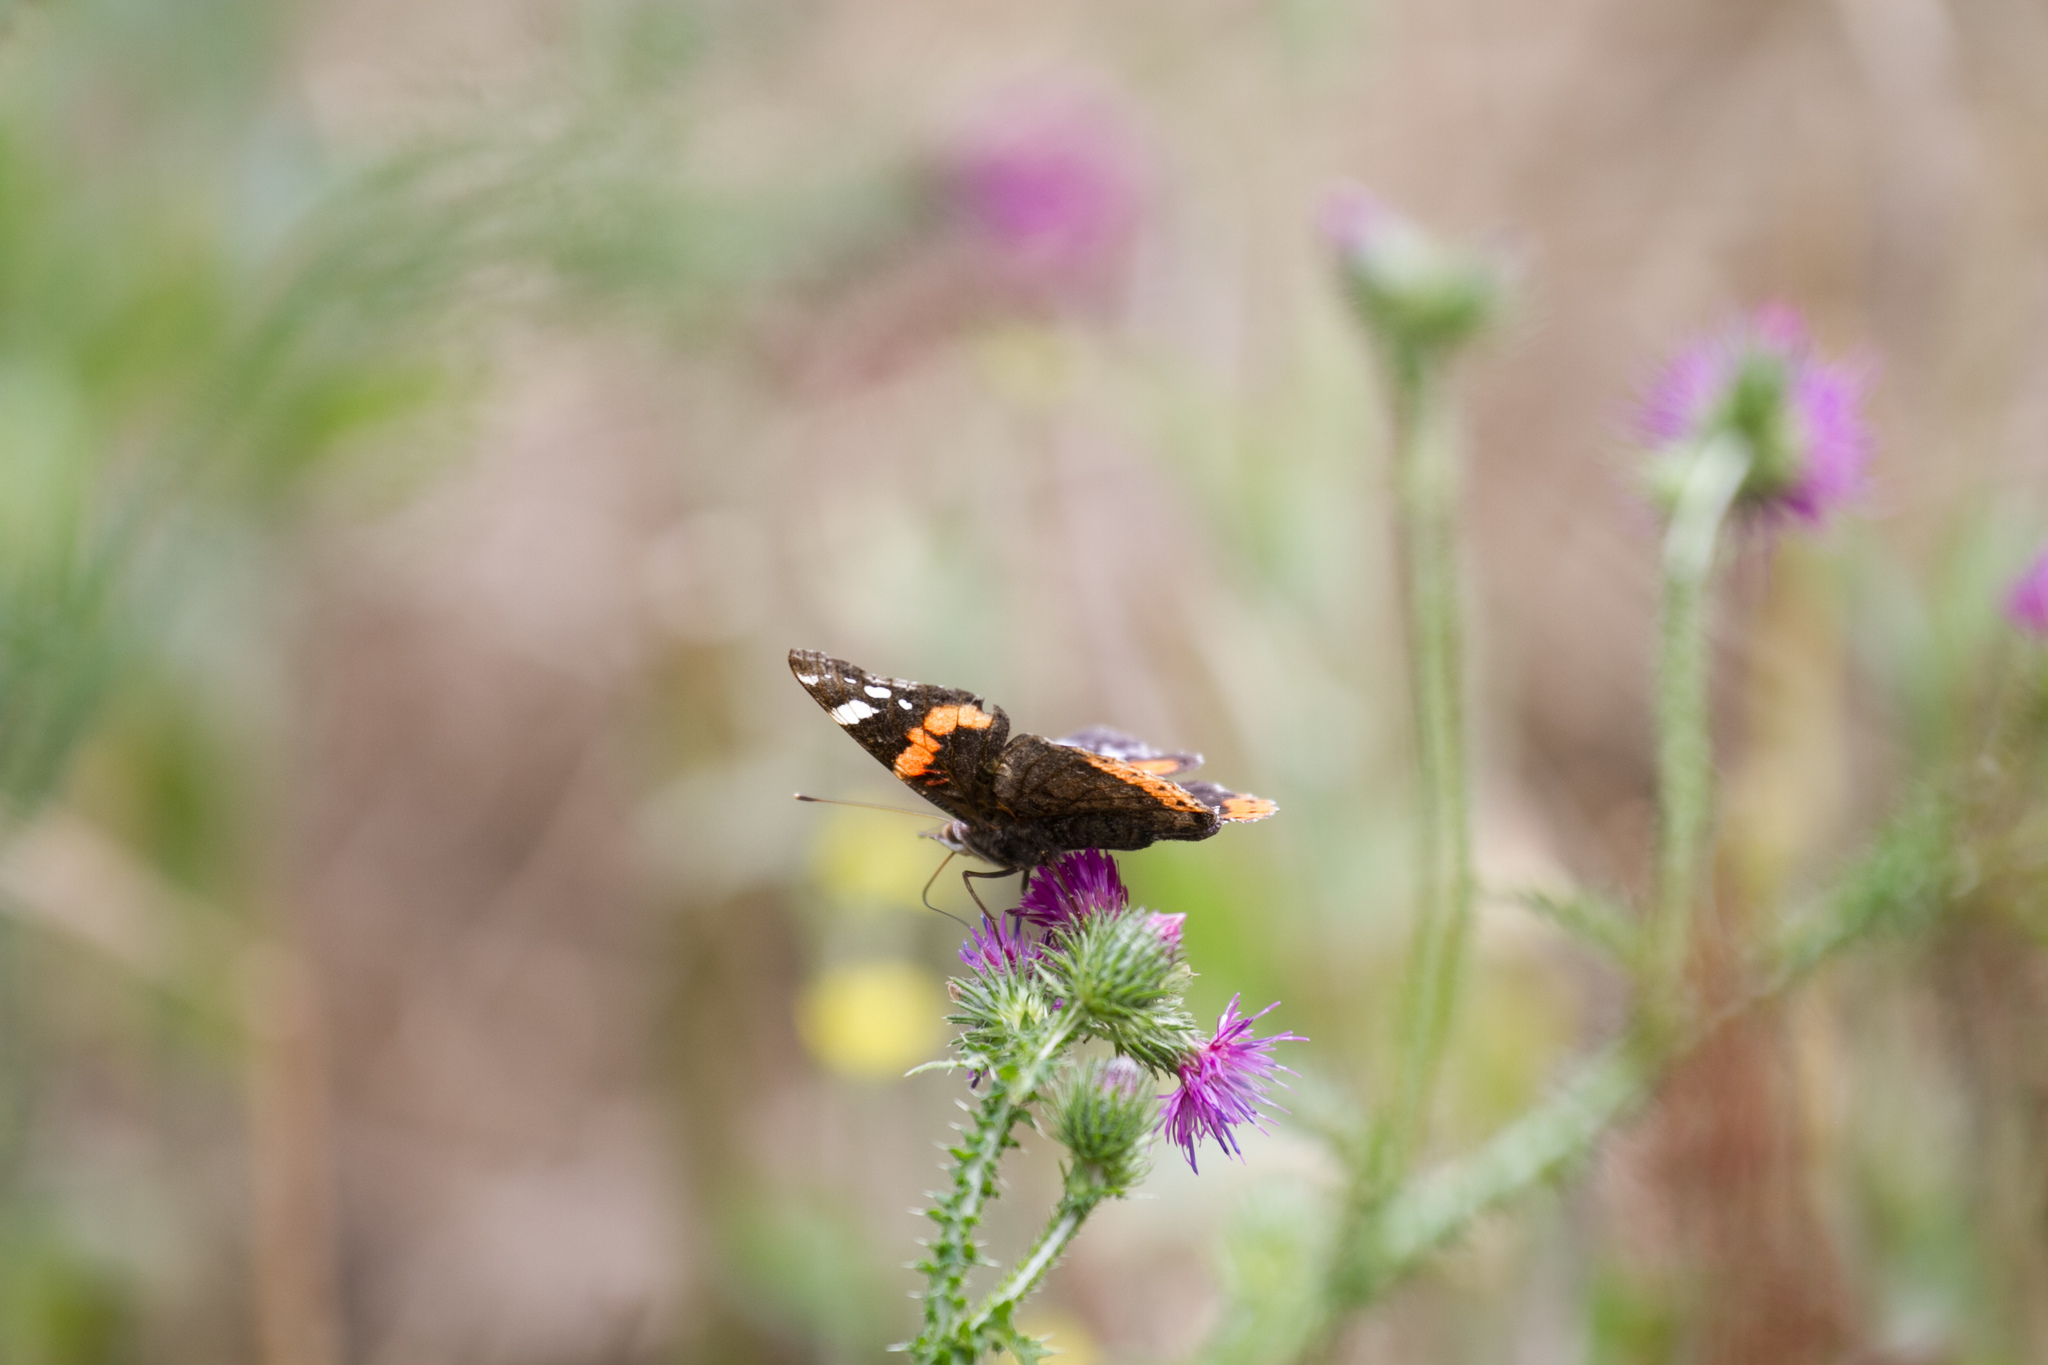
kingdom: Animalia
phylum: Arthropoda
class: Insecta
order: Lepidoptera
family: Nymphalidae
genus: Vanessa
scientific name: Vanessa atalanta
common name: Red admiral
